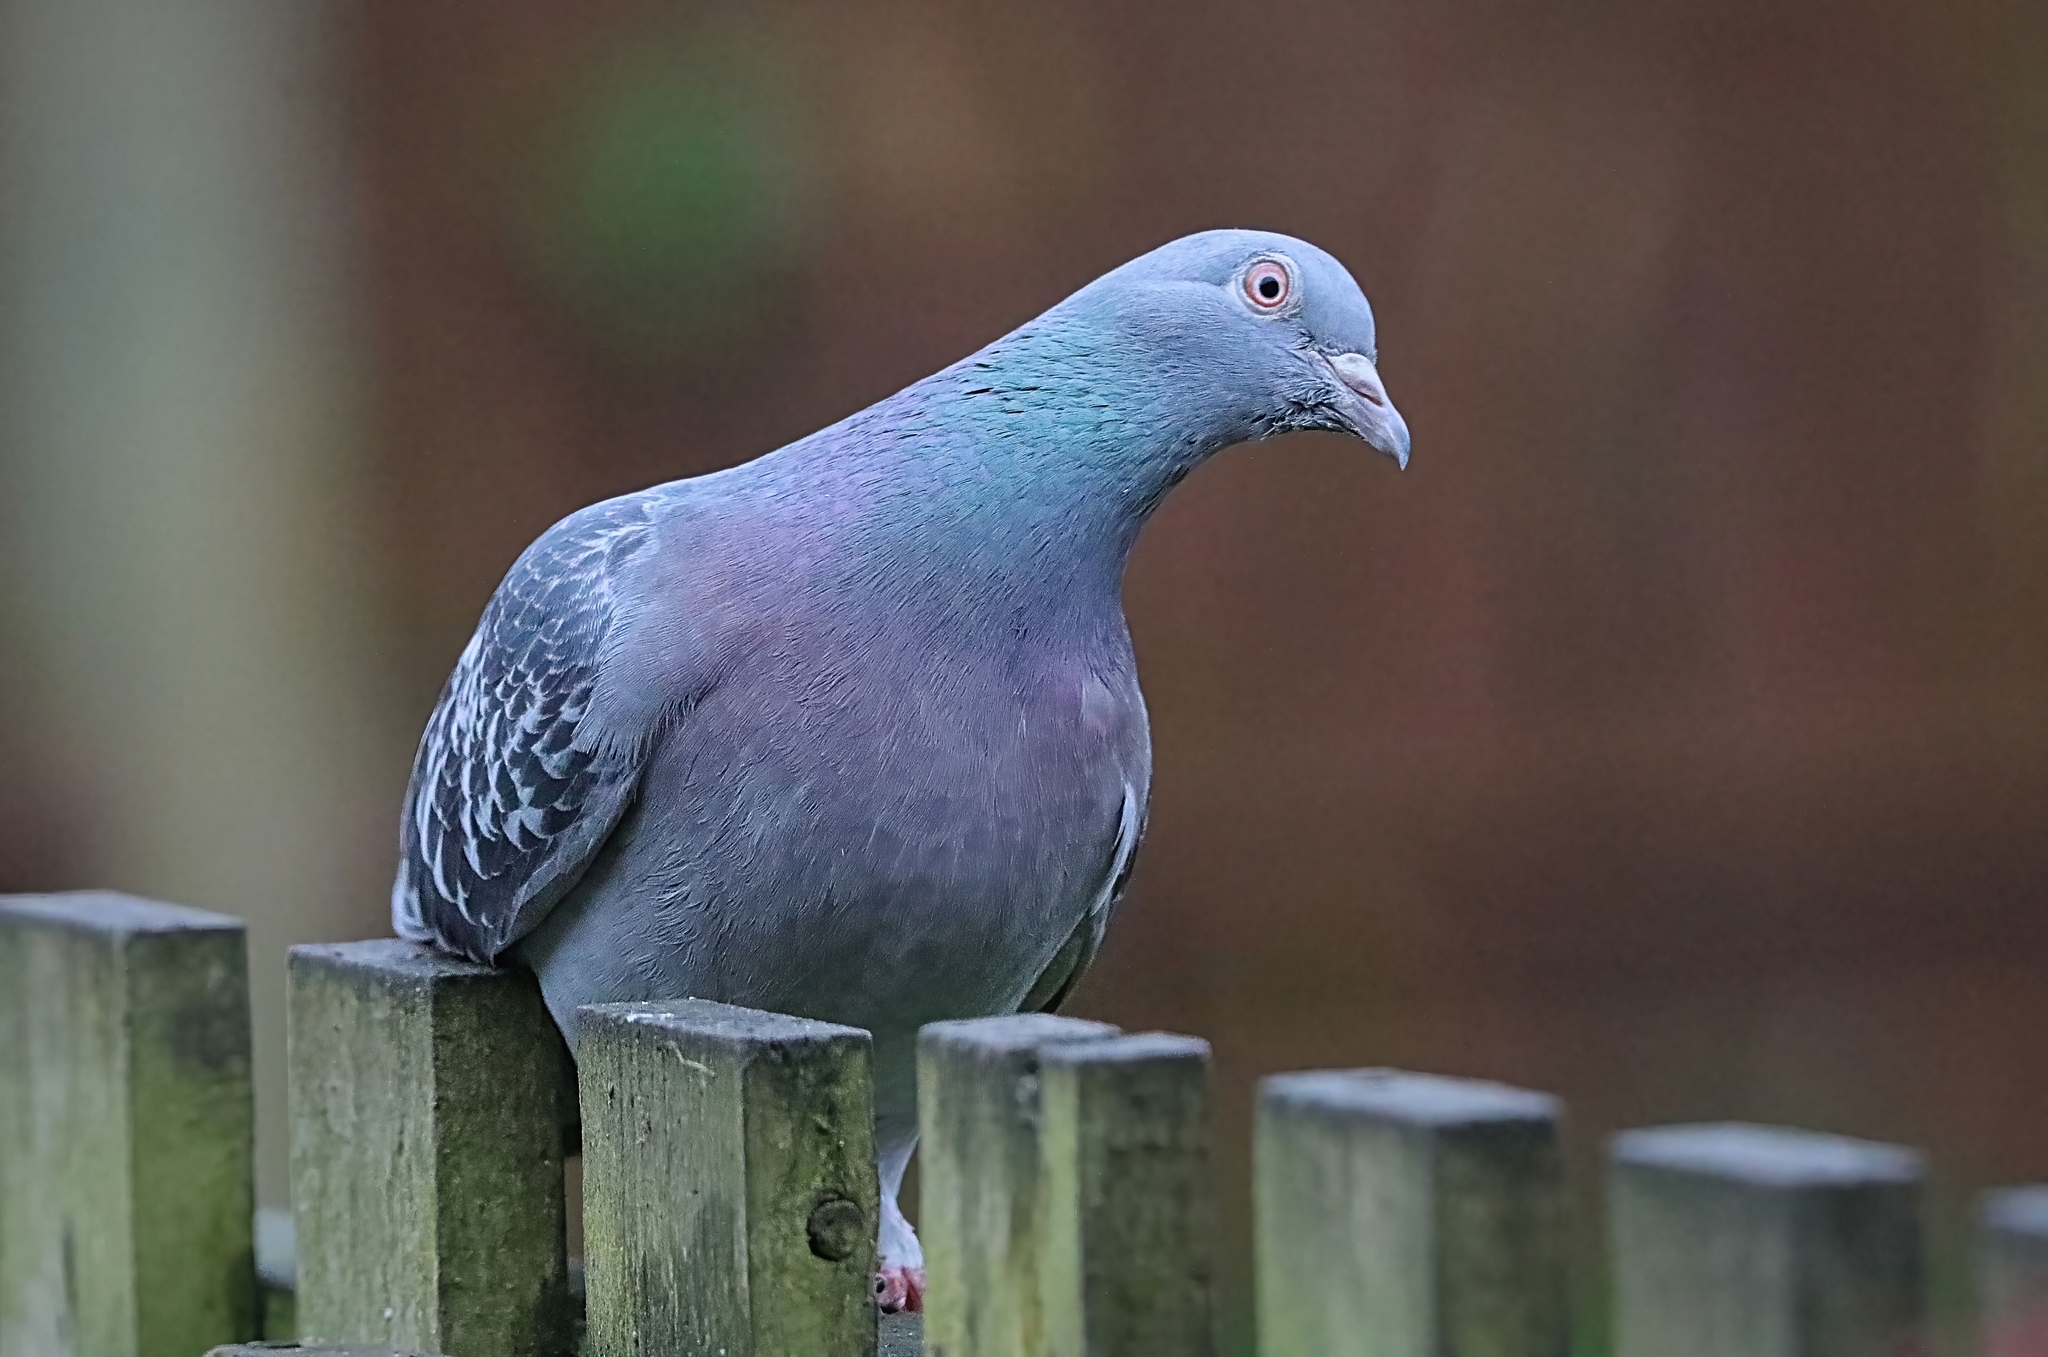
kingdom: Animalia
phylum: Chordata
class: Aves
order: Columbiformes
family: Columbidae
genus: Columba
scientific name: Columba livia
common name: Rock pigeon
